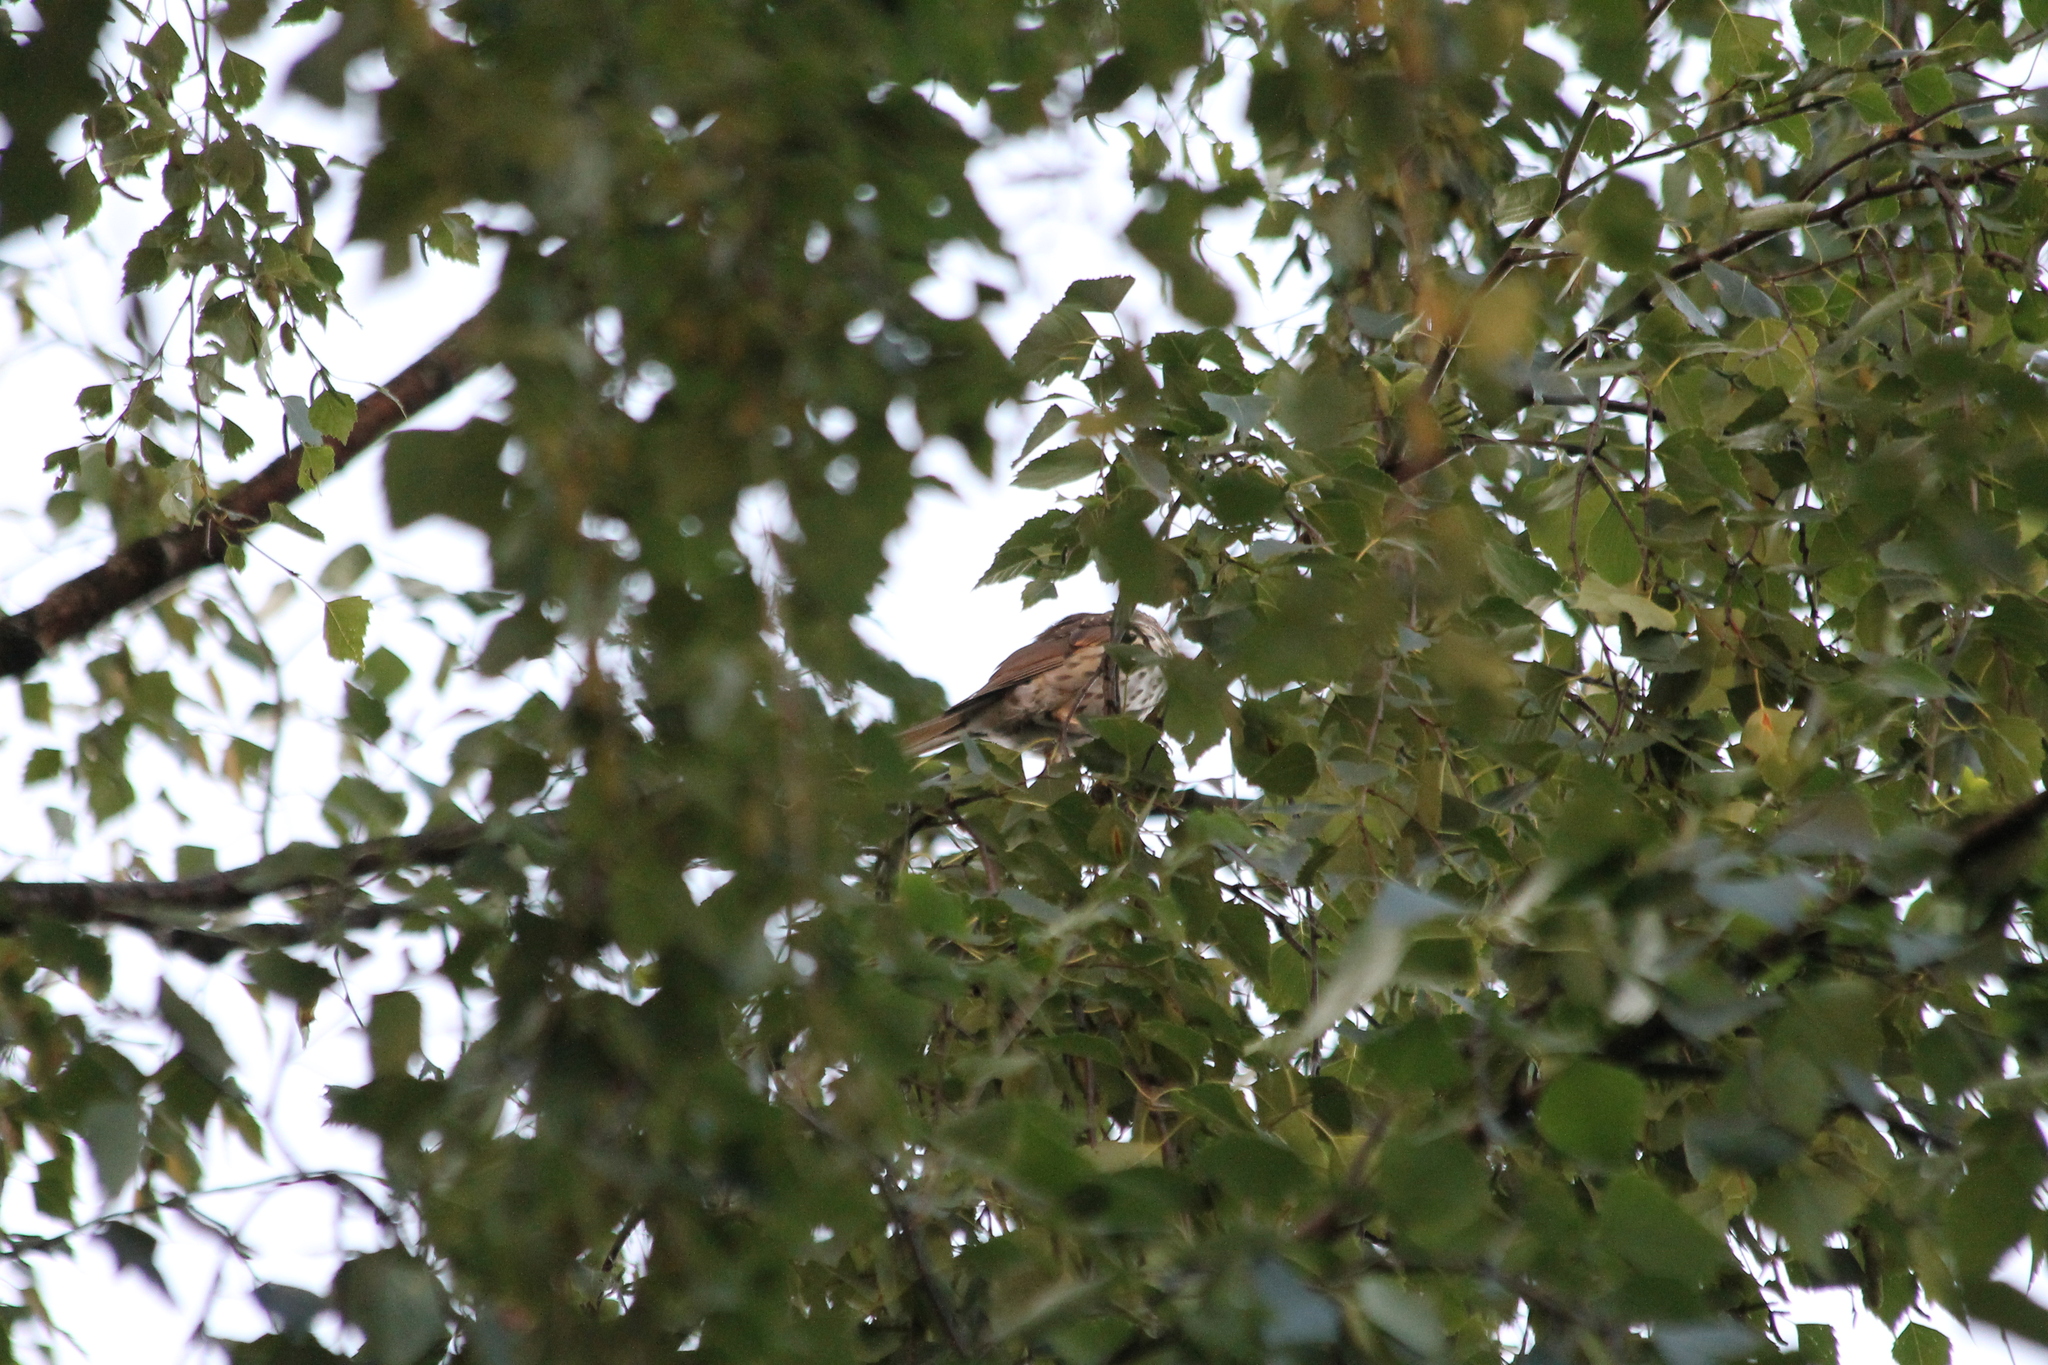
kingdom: Animalia
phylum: Chordata
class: Aves
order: Passeriformes
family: Turdidae
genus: Turdus
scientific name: Turdus philomelos
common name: Song thrush
